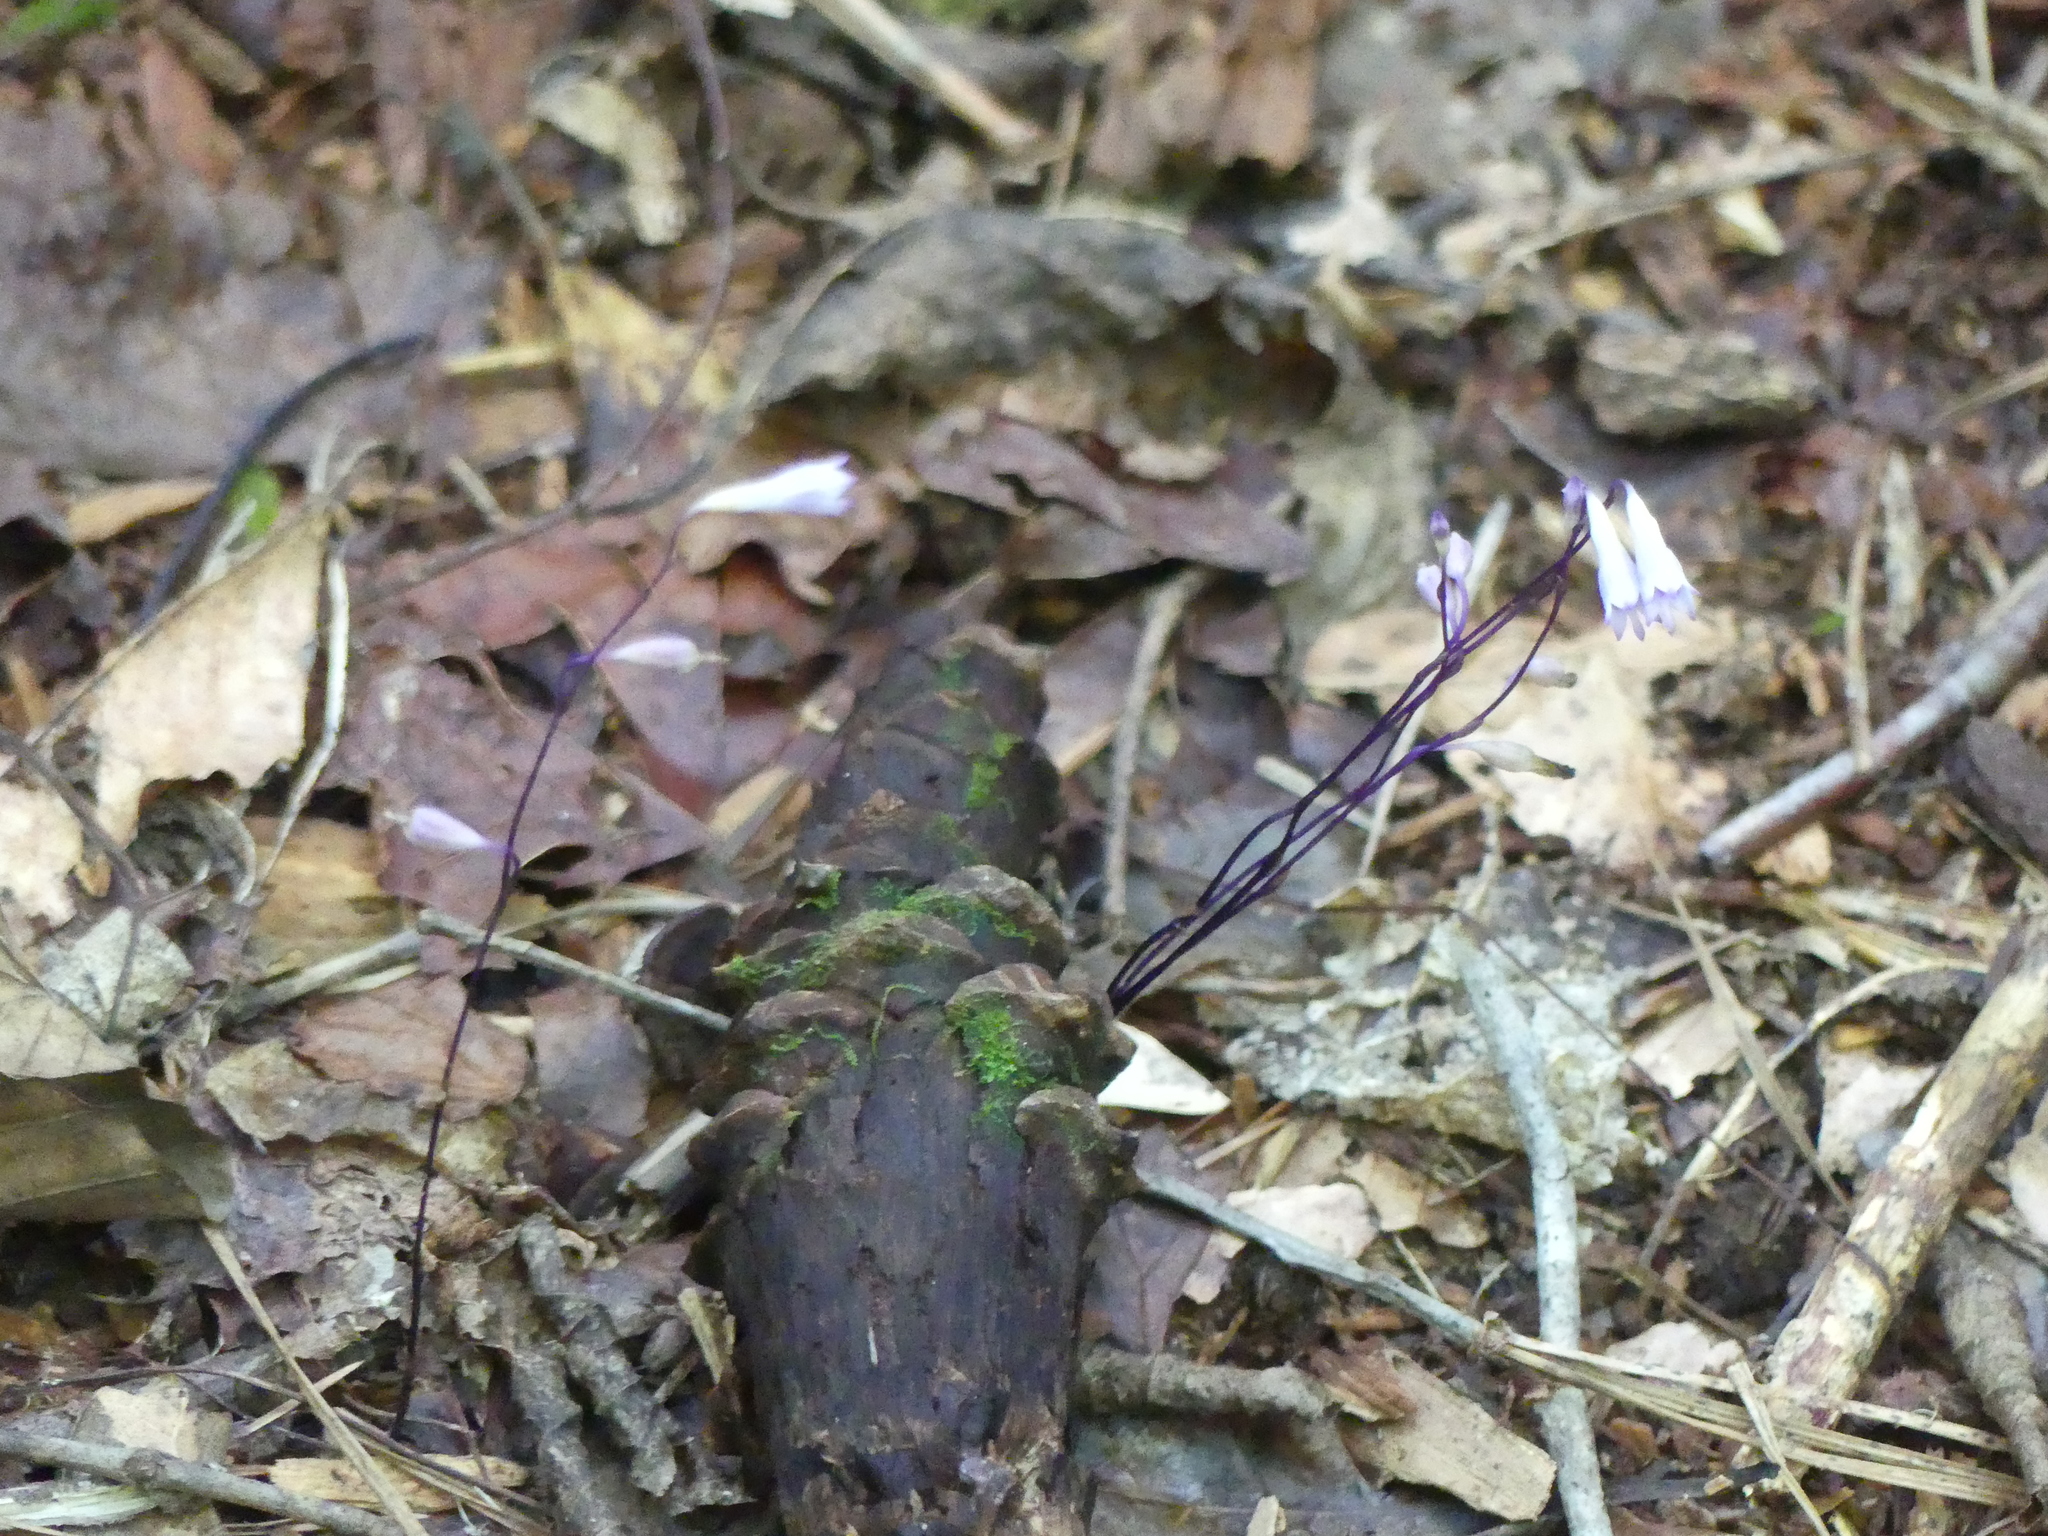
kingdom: Plantae
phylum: Tracheophyta
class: Liliopsida
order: Dioscoreales
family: Burmanniaceae
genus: Apteria
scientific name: Apteria aphylla
